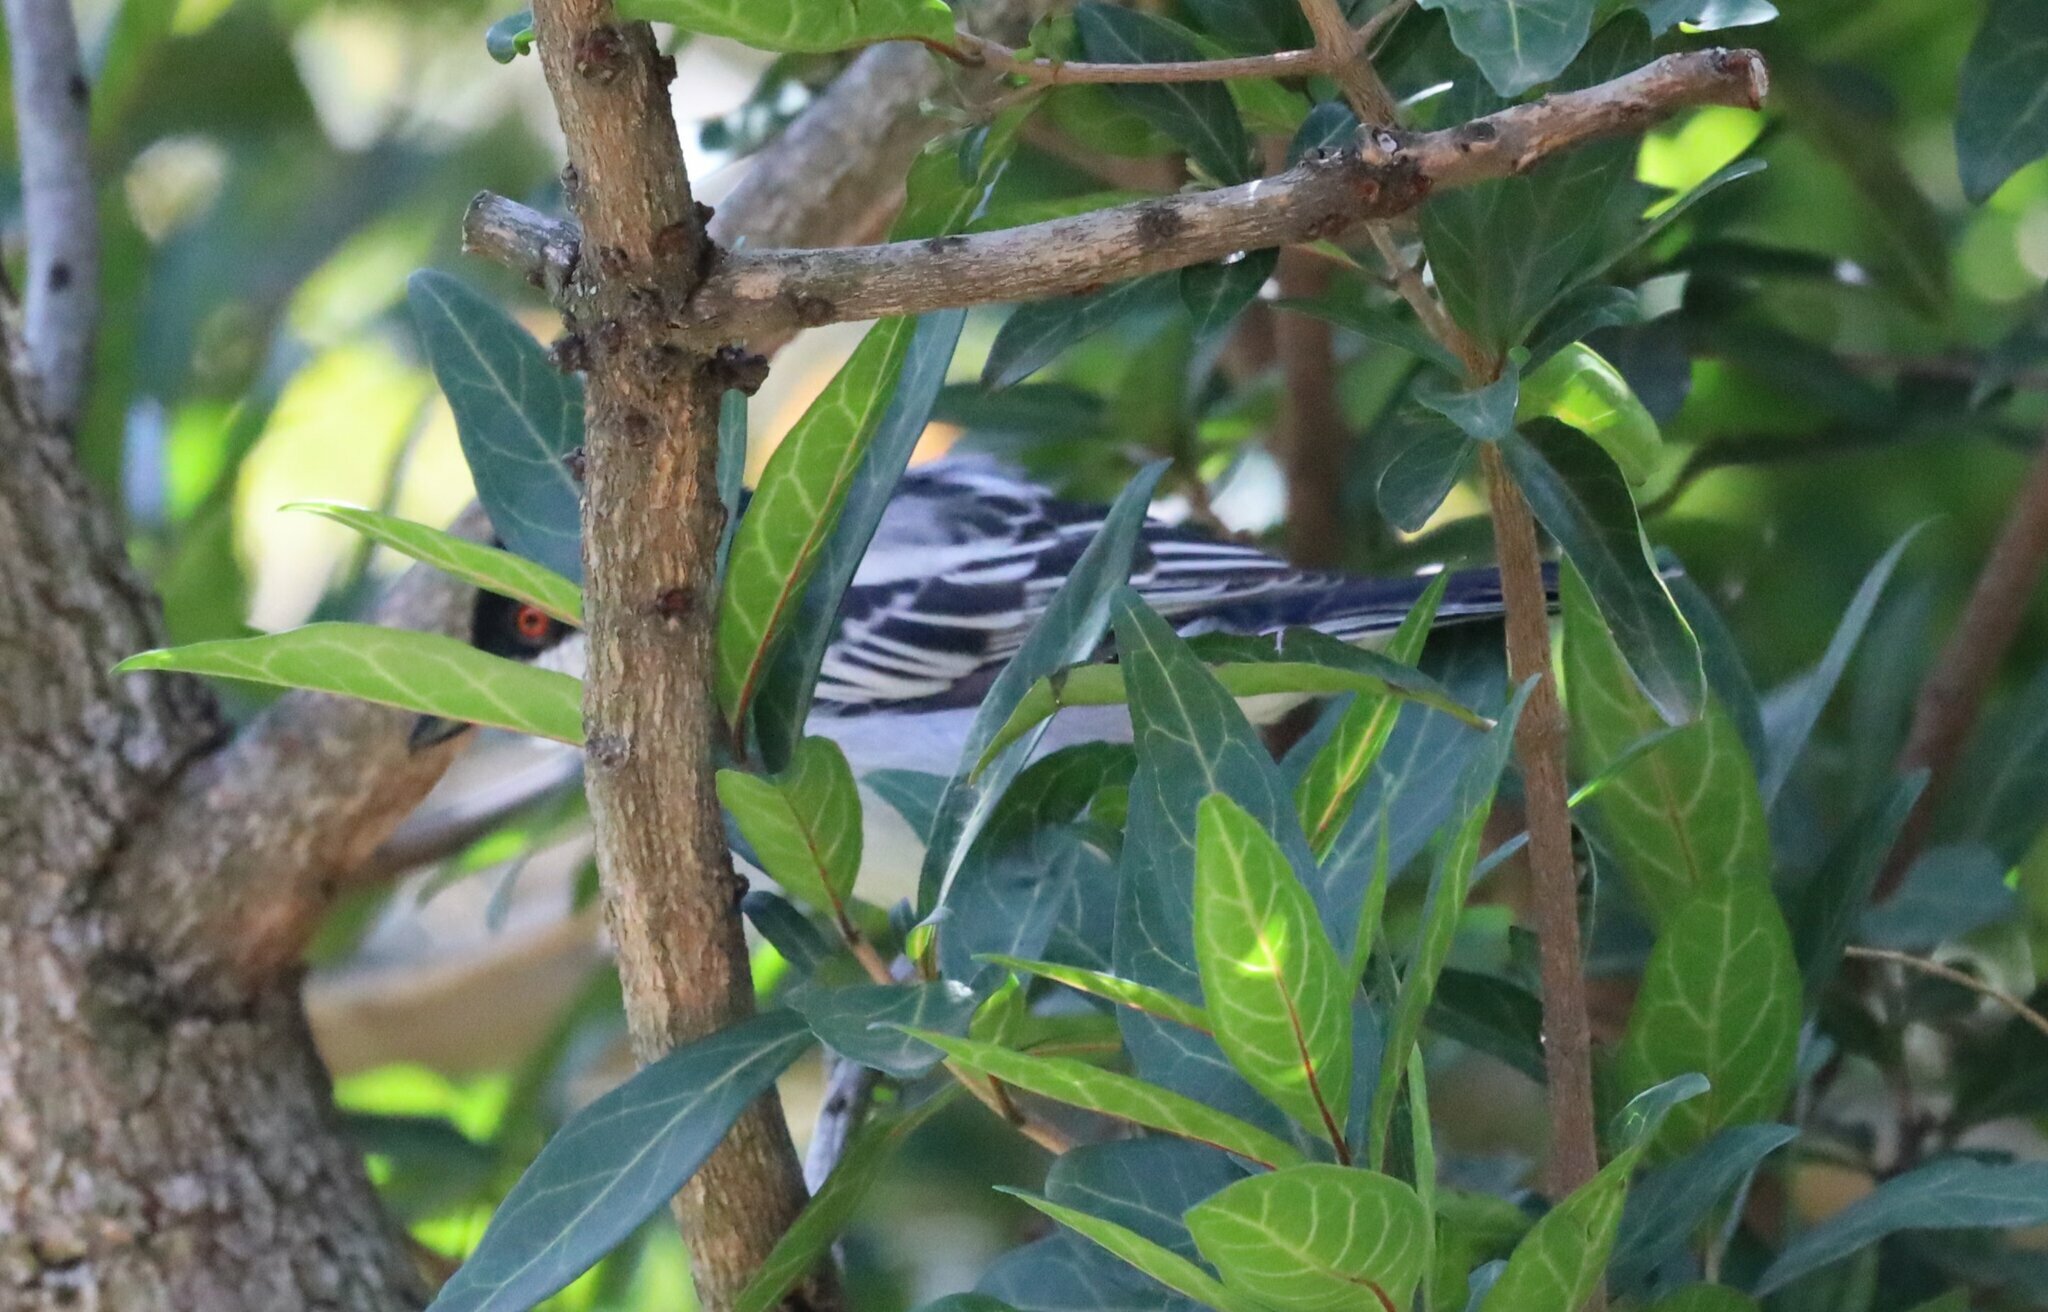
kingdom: Animalia
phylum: Chordata
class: Aves
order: Passeriformes
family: Malaconotidae
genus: Dryoscopus
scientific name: Dryoscopus cubla
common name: Black-backed puffback
